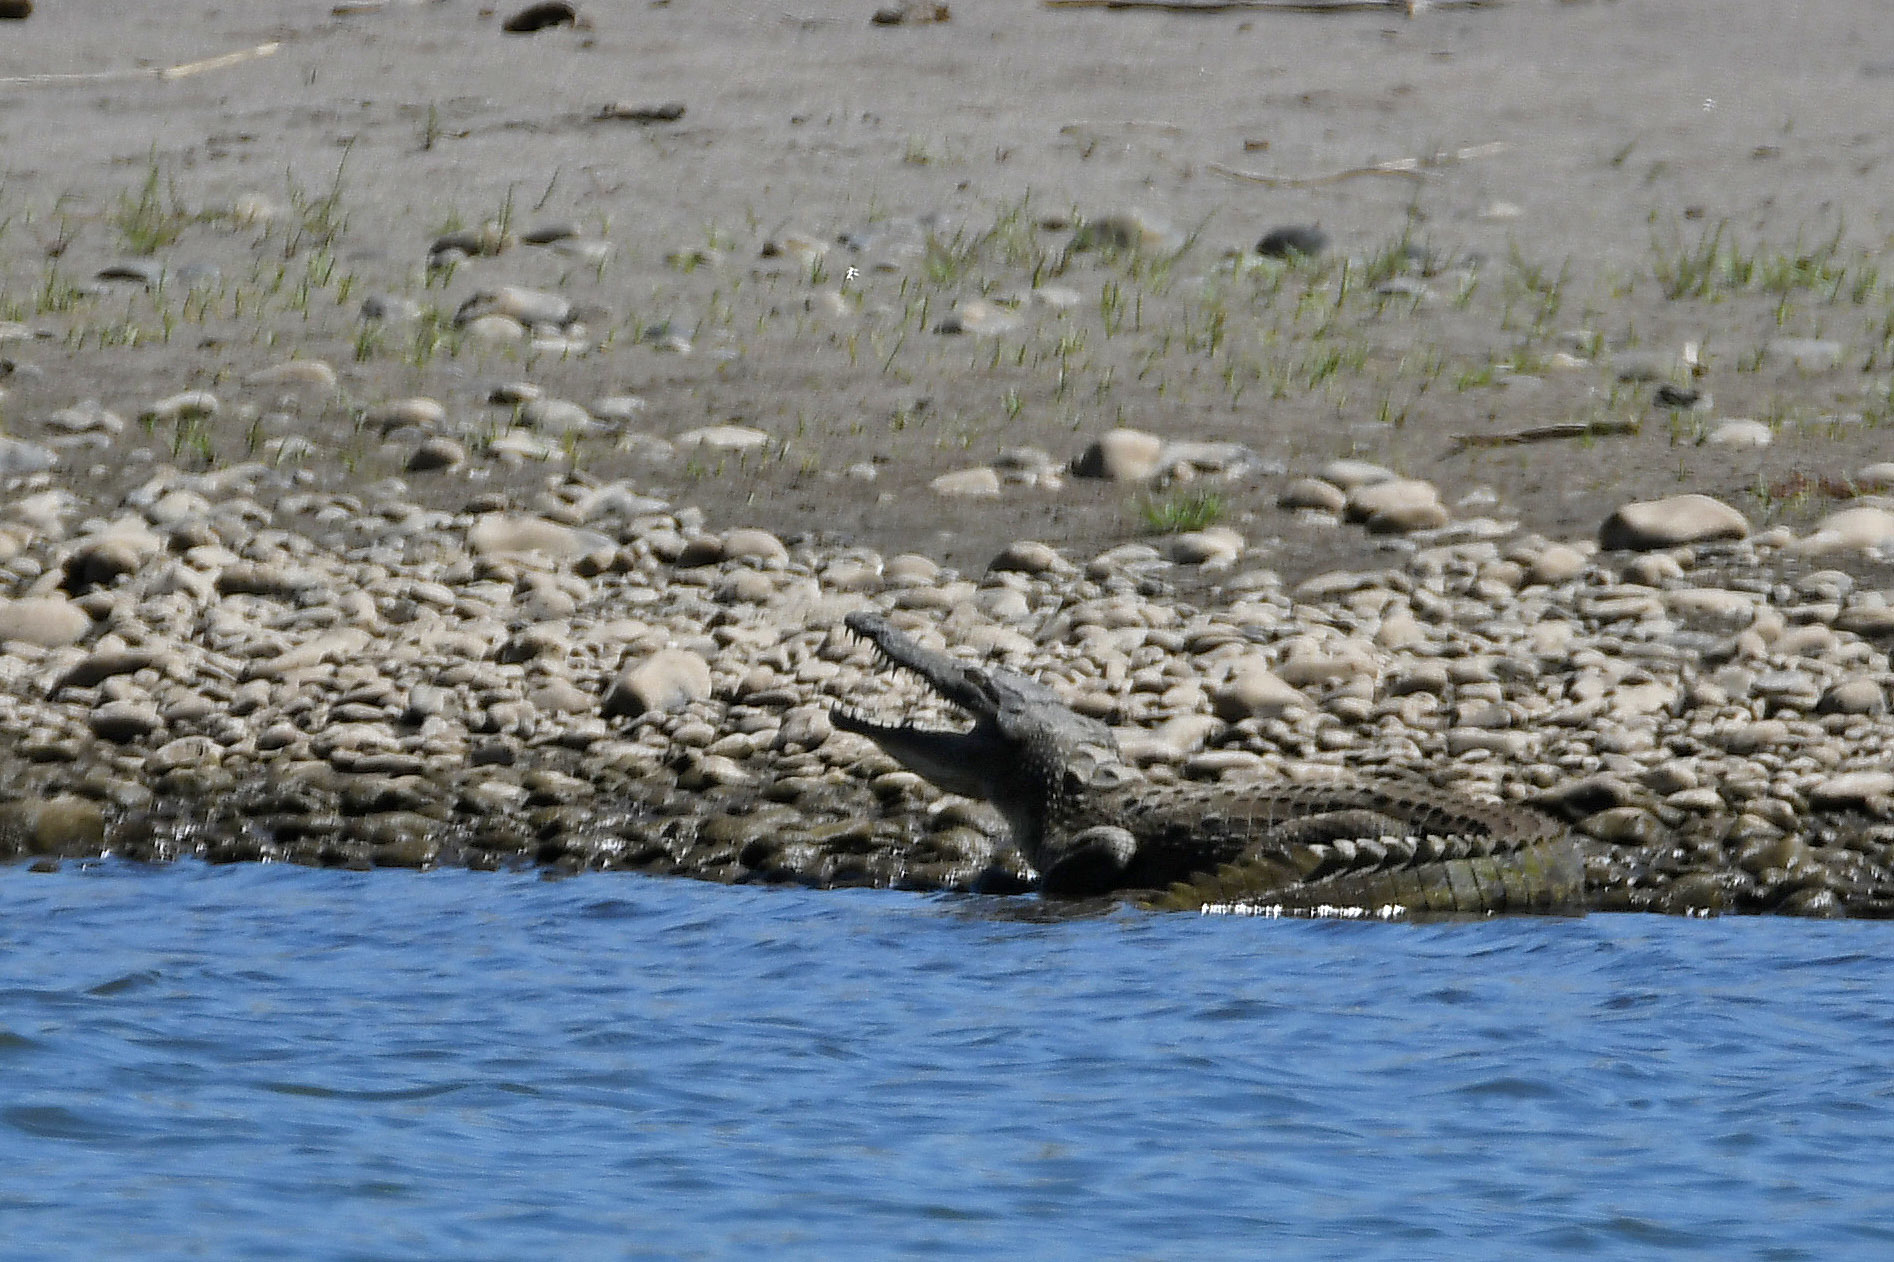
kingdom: Animalia
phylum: Chordata
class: Crocodylia
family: Crocodylidae
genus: Crocodylus
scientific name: Crocodylus niloticus
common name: Nile crocodile
